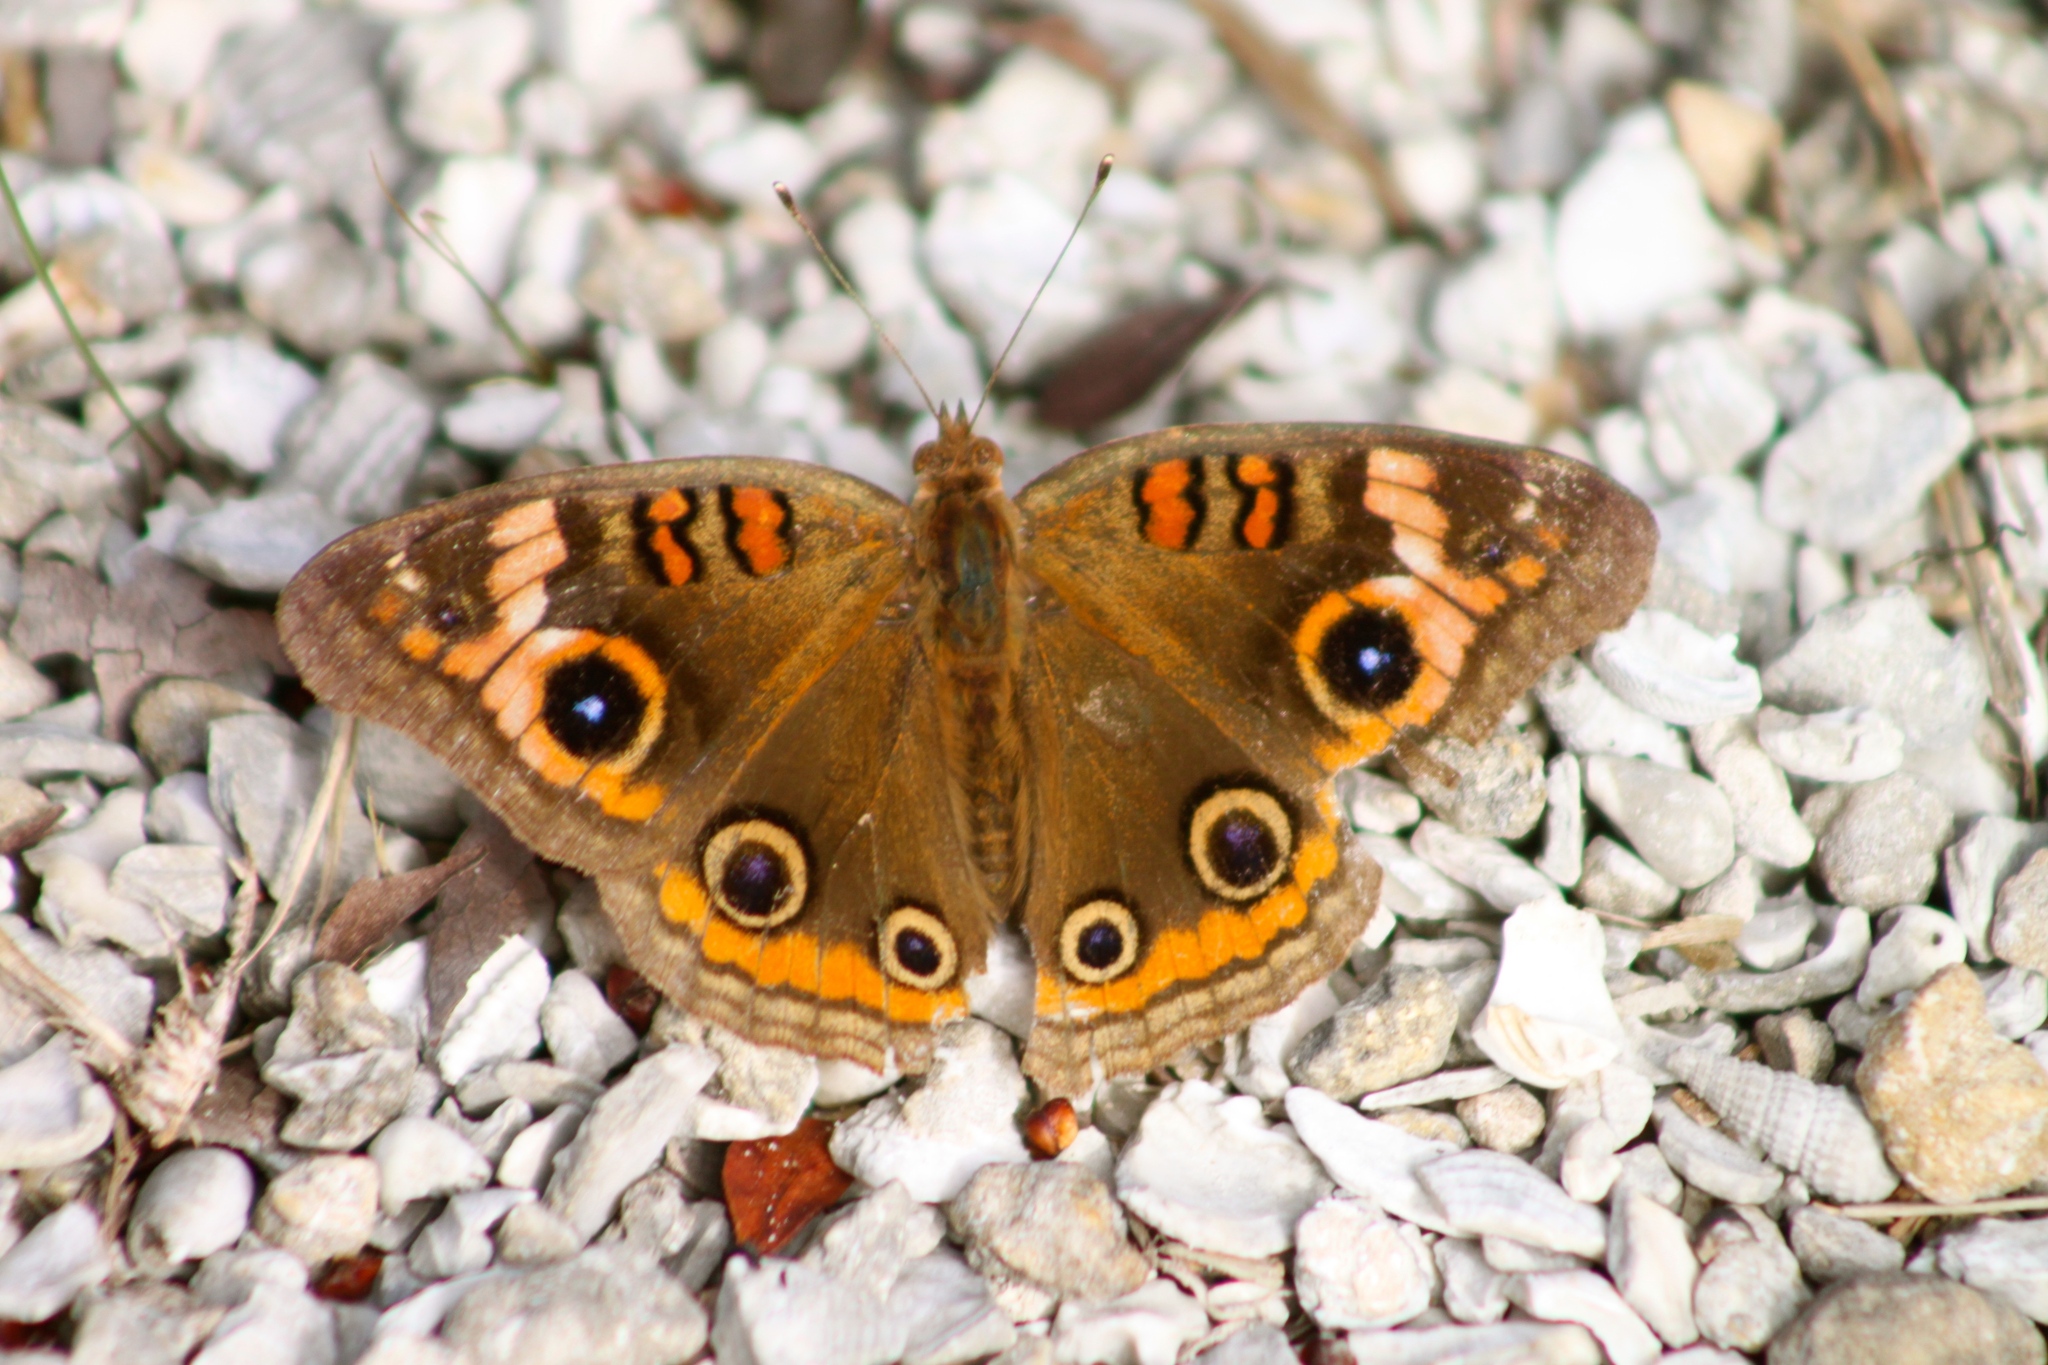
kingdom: Animalia
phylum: Arthropoda
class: Insecta
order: Lepidoptera
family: Nymphalidae
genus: Junonia
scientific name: Junonia neildi
